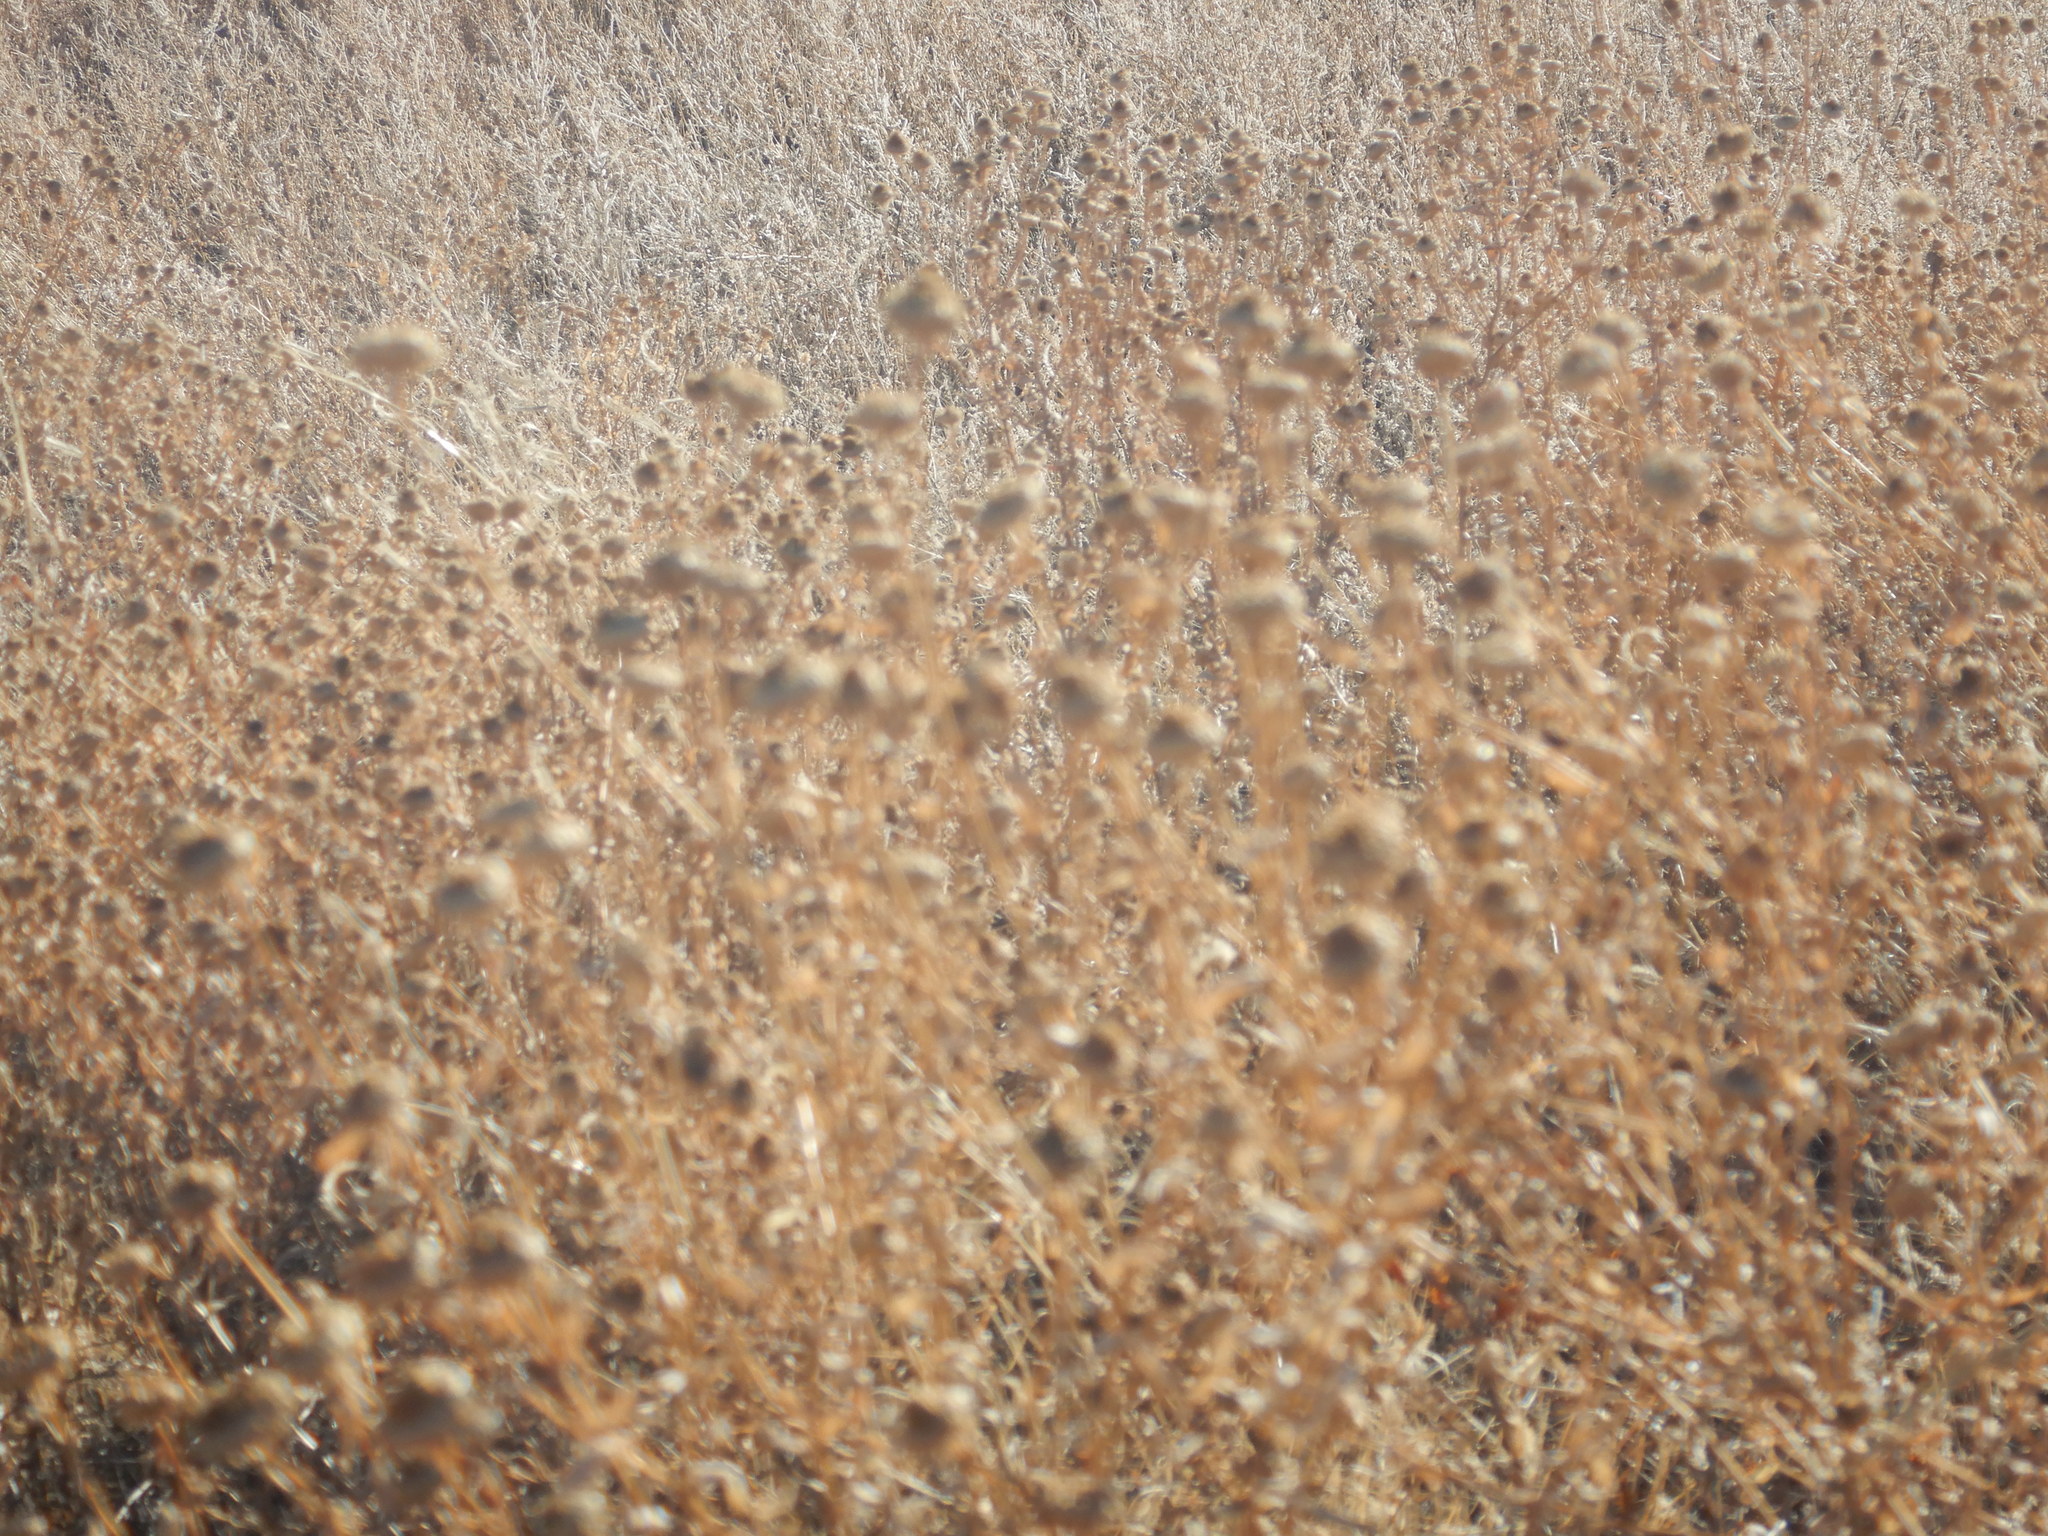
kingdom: Plantae
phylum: Tracheophyta
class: Magnoliopsida
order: Asterales
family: Asteraceae
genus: Grindelia
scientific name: Grindelia squarrosa
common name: Curly-cup gumweed
